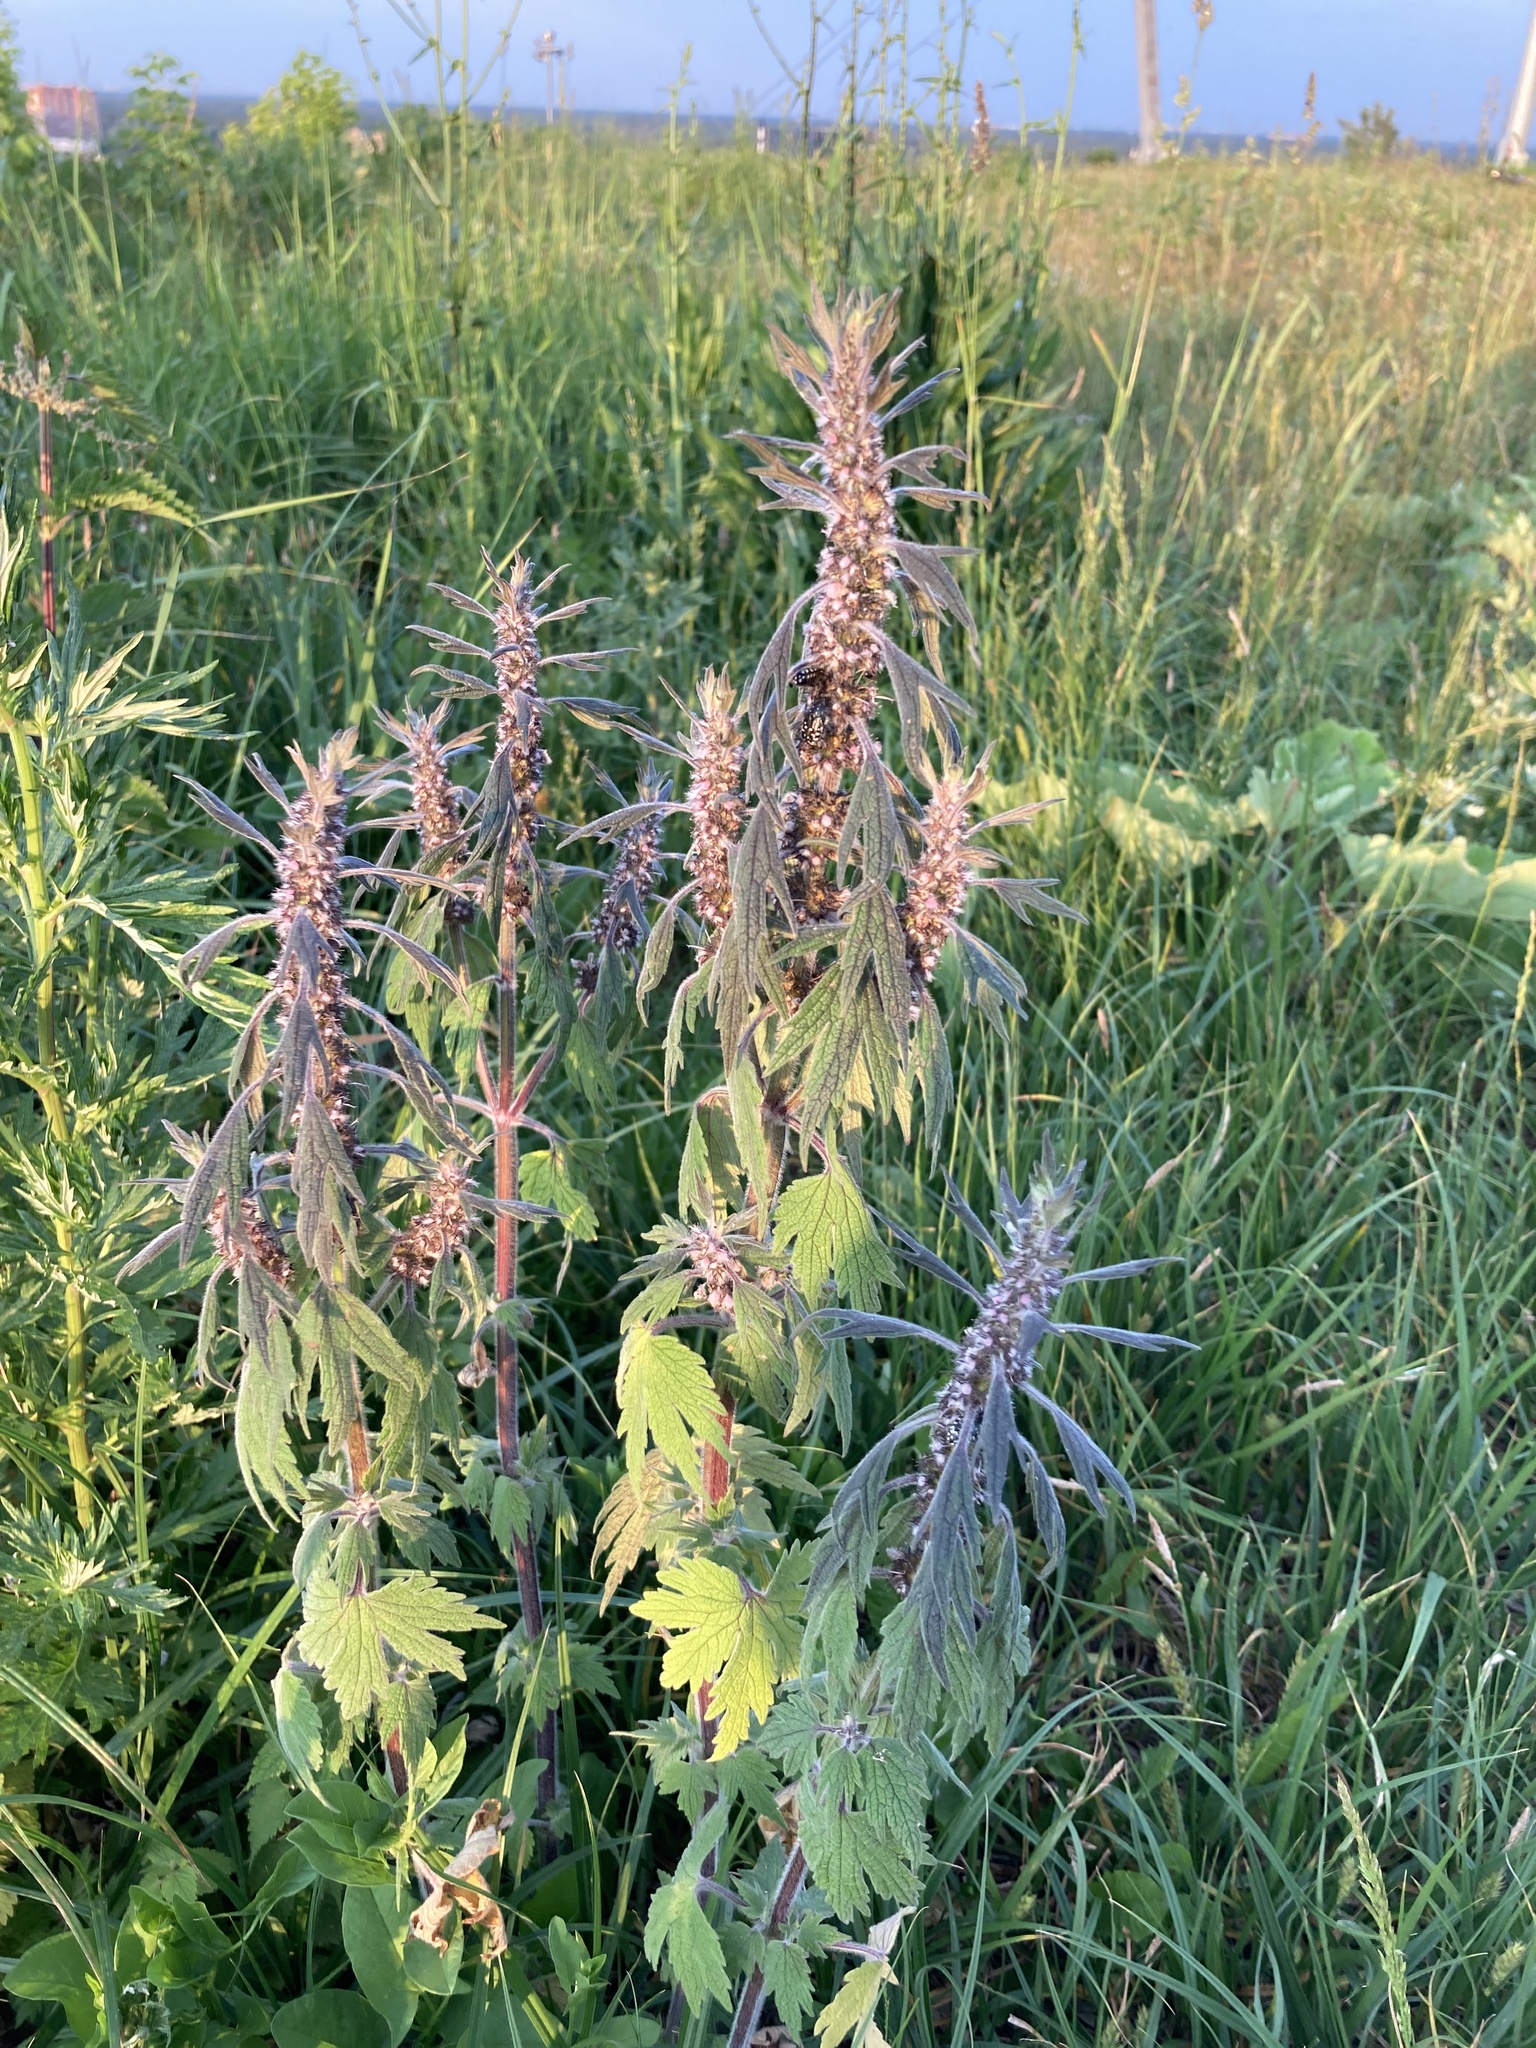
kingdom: Plantae
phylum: Tracheophyta
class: Magnoliopsida
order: Lamiales
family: Lamiaceae
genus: Leonurus
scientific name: Leonurus quinquelobatus
